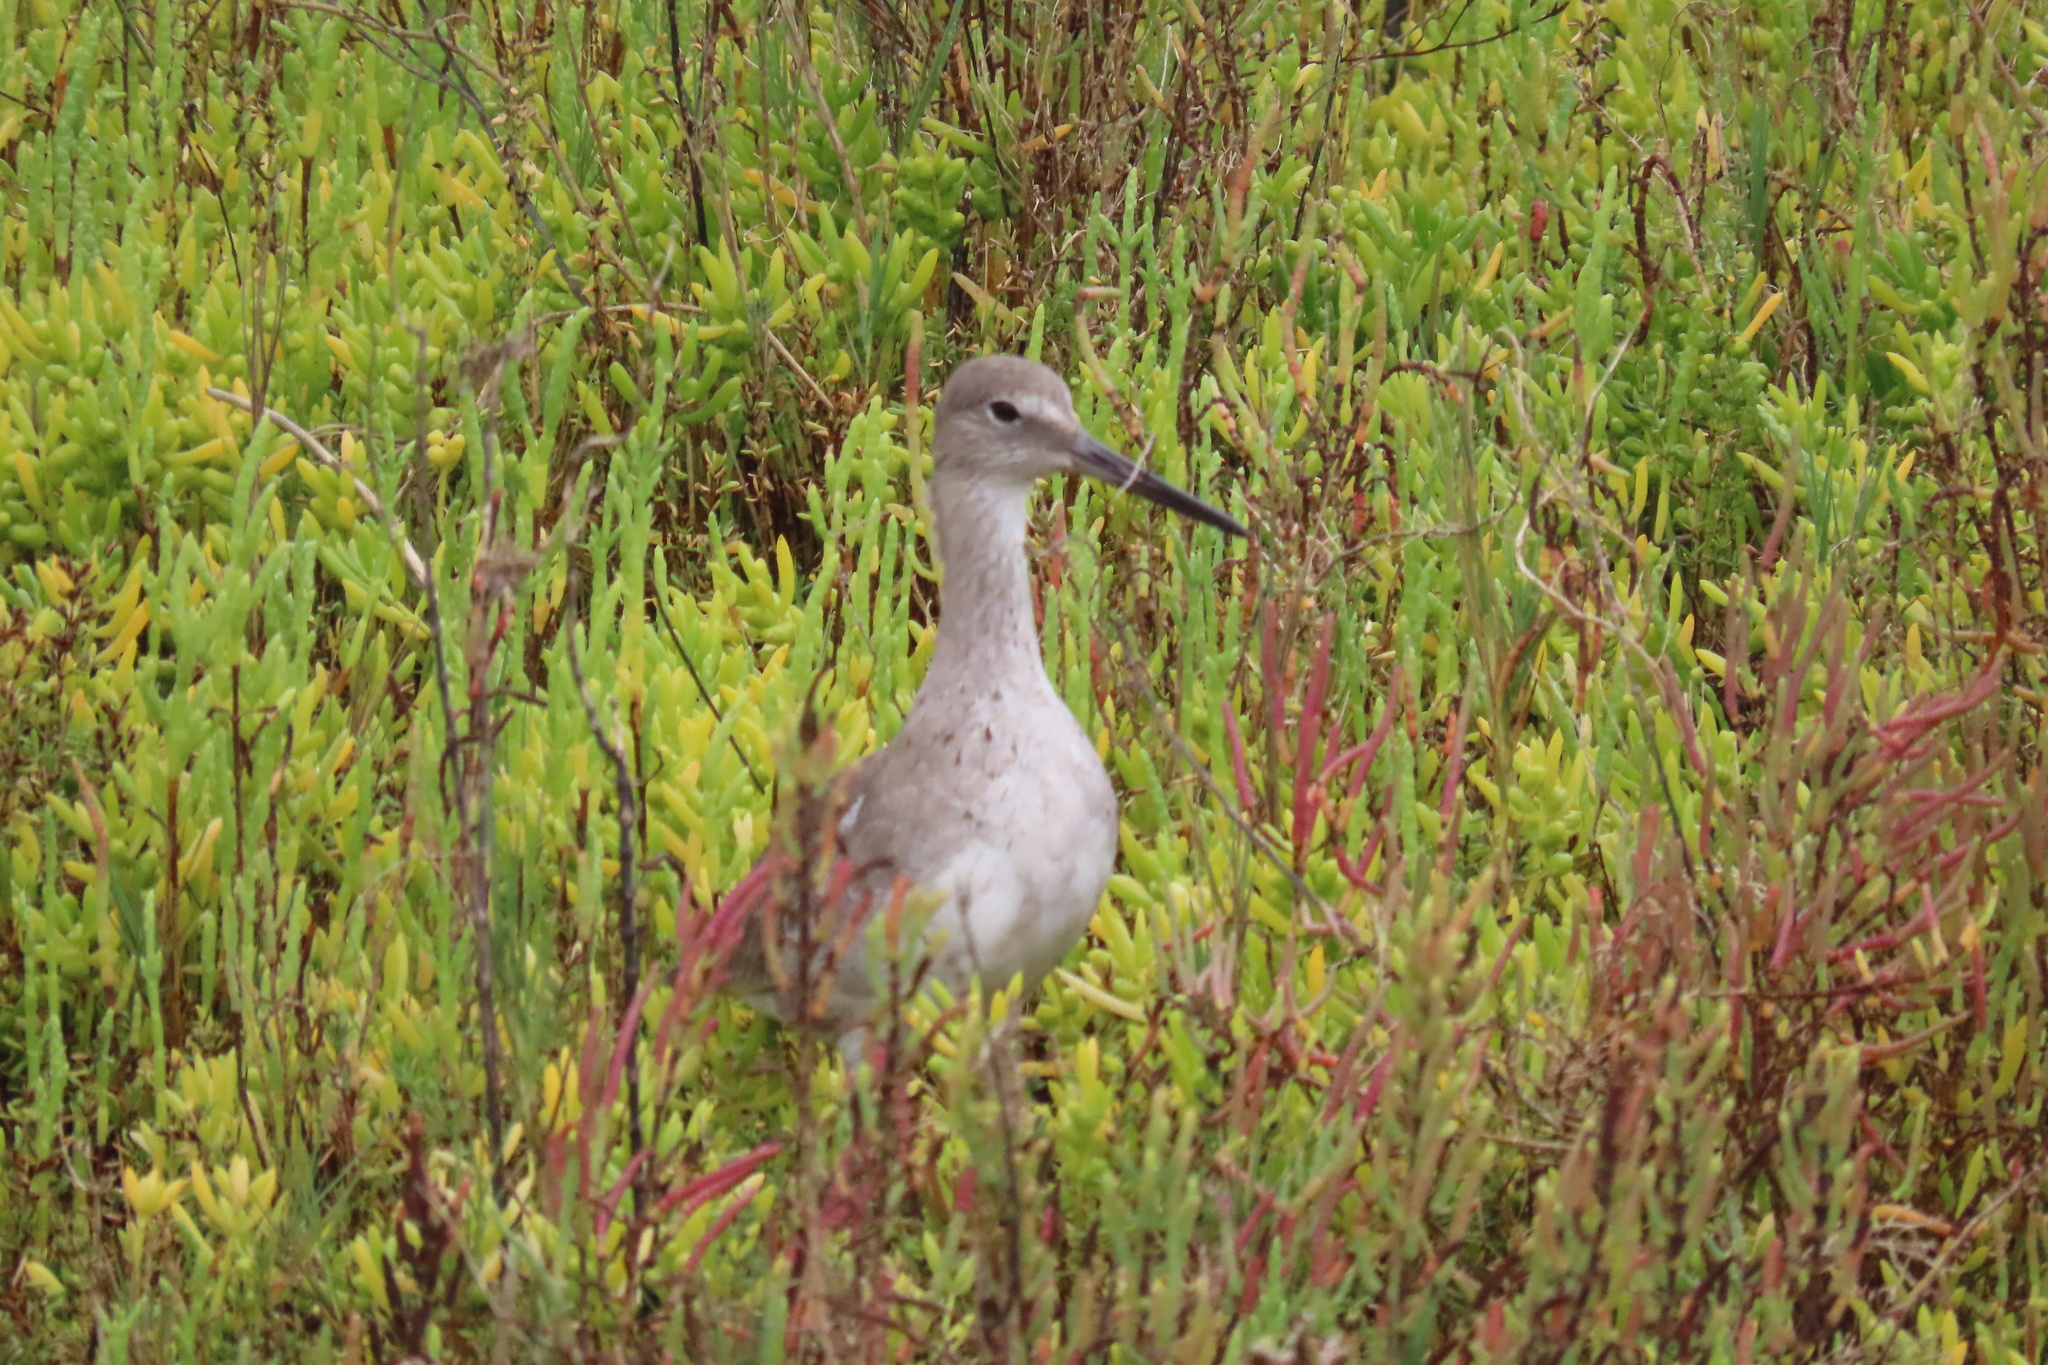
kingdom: Animalia
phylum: Chordata
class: Aves
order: Charadriiformes
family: Scolopacidae
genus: Tringa
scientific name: Tringa semipalmata
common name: Willet
